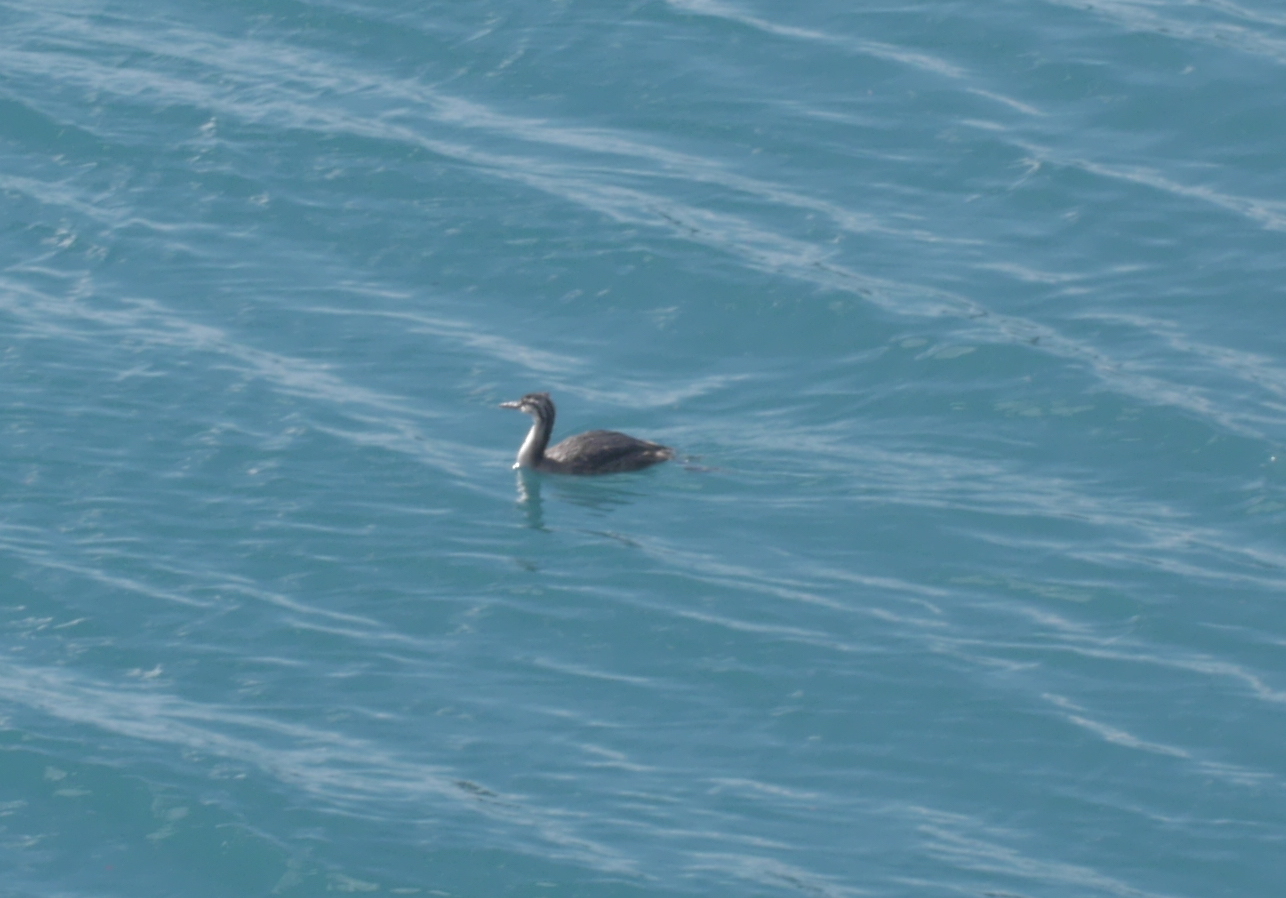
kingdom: Animalia
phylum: Chordata
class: Aves
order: Podicipediformes
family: Podicipedidae
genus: Podiceps
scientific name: Podiceps cristatus
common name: Great crested grebe
